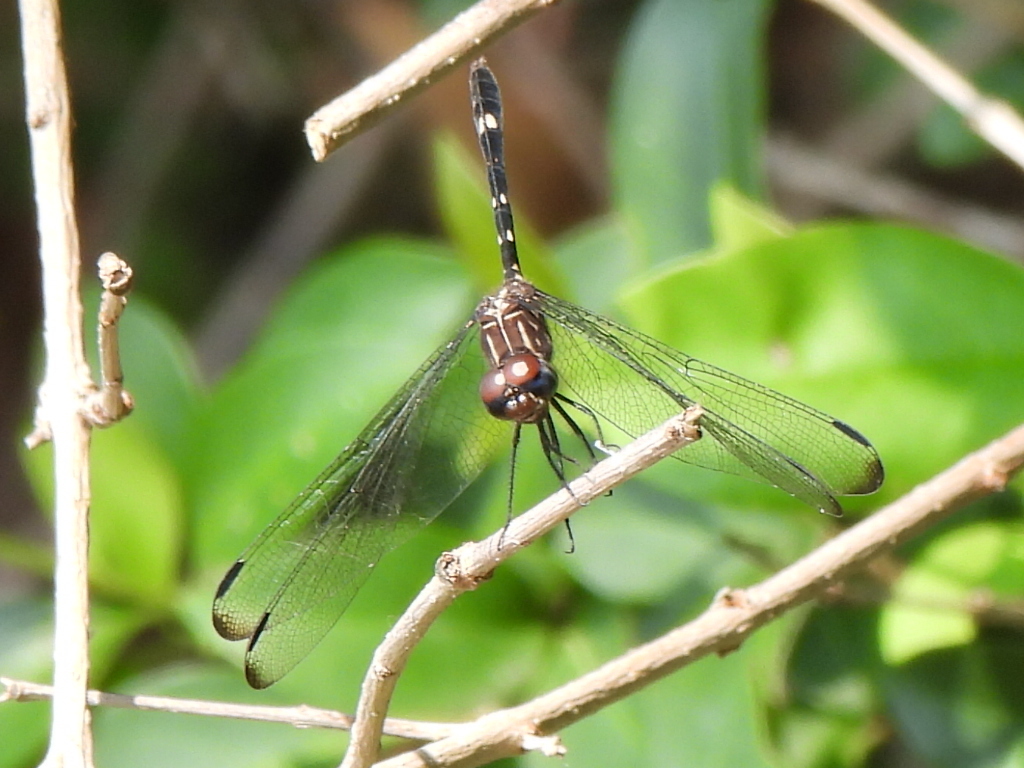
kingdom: Animalia
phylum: Arthropoda
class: Insecta
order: Odonata
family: Libellulidae
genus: Dythemis
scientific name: Dythemis velox
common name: Swift setwing
